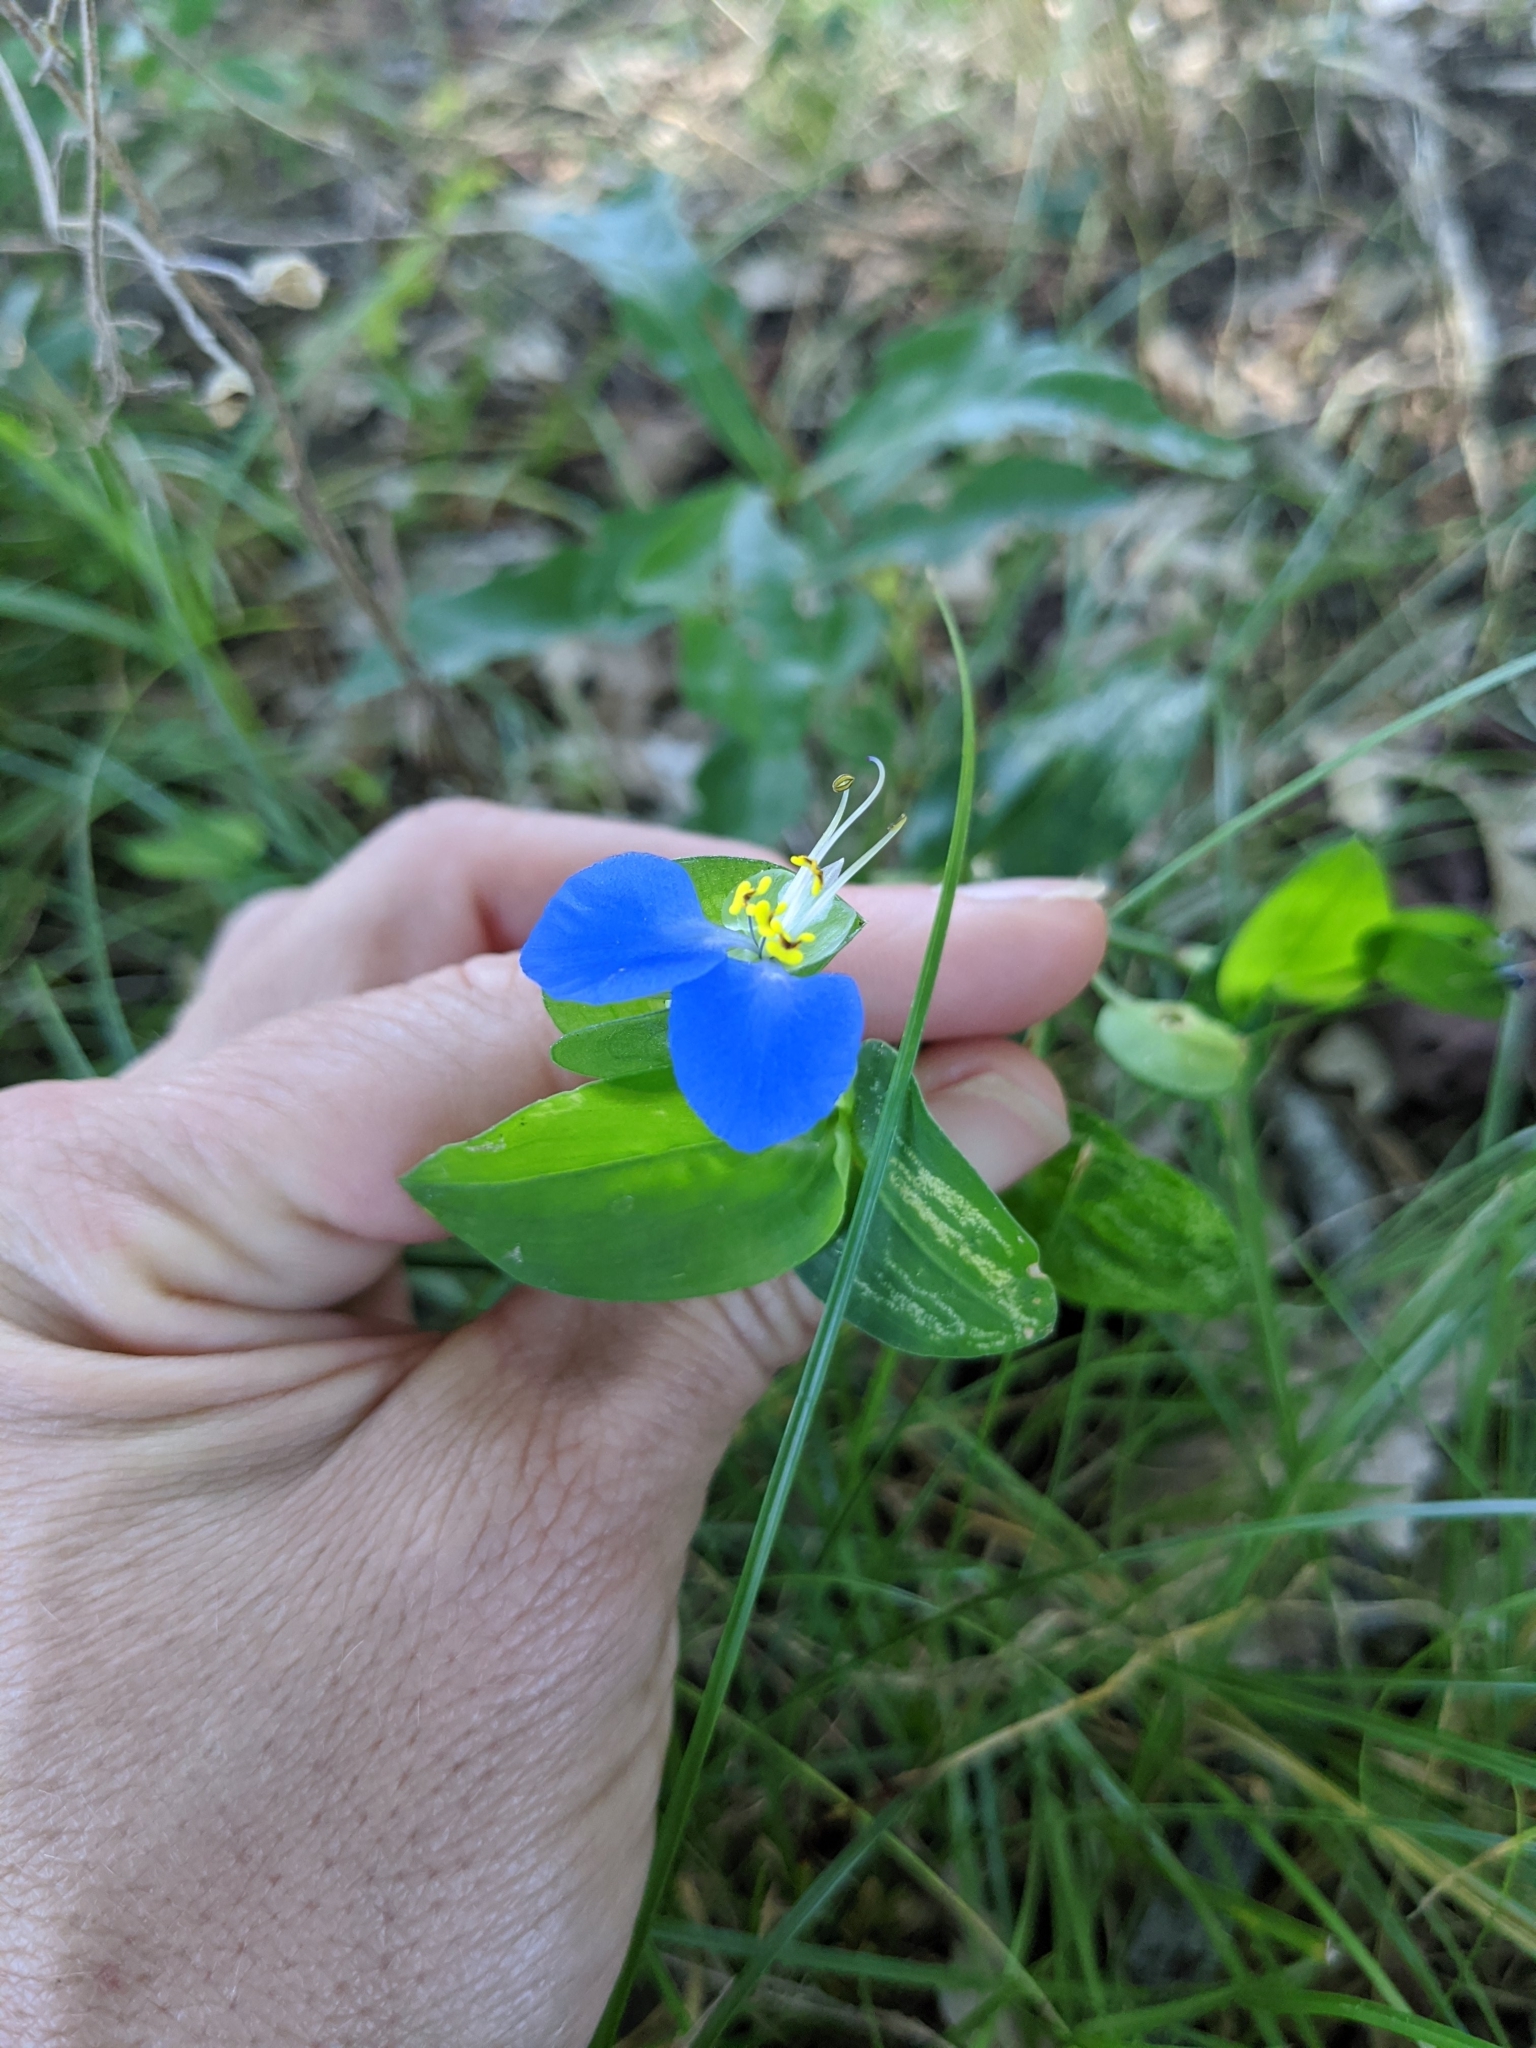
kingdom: Plantae
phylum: Tracheophyta
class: Liliopsida
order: Commelinales
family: Commelinaceae
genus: Commelina
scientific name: Commelina communis
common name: Asiatic dayflower
